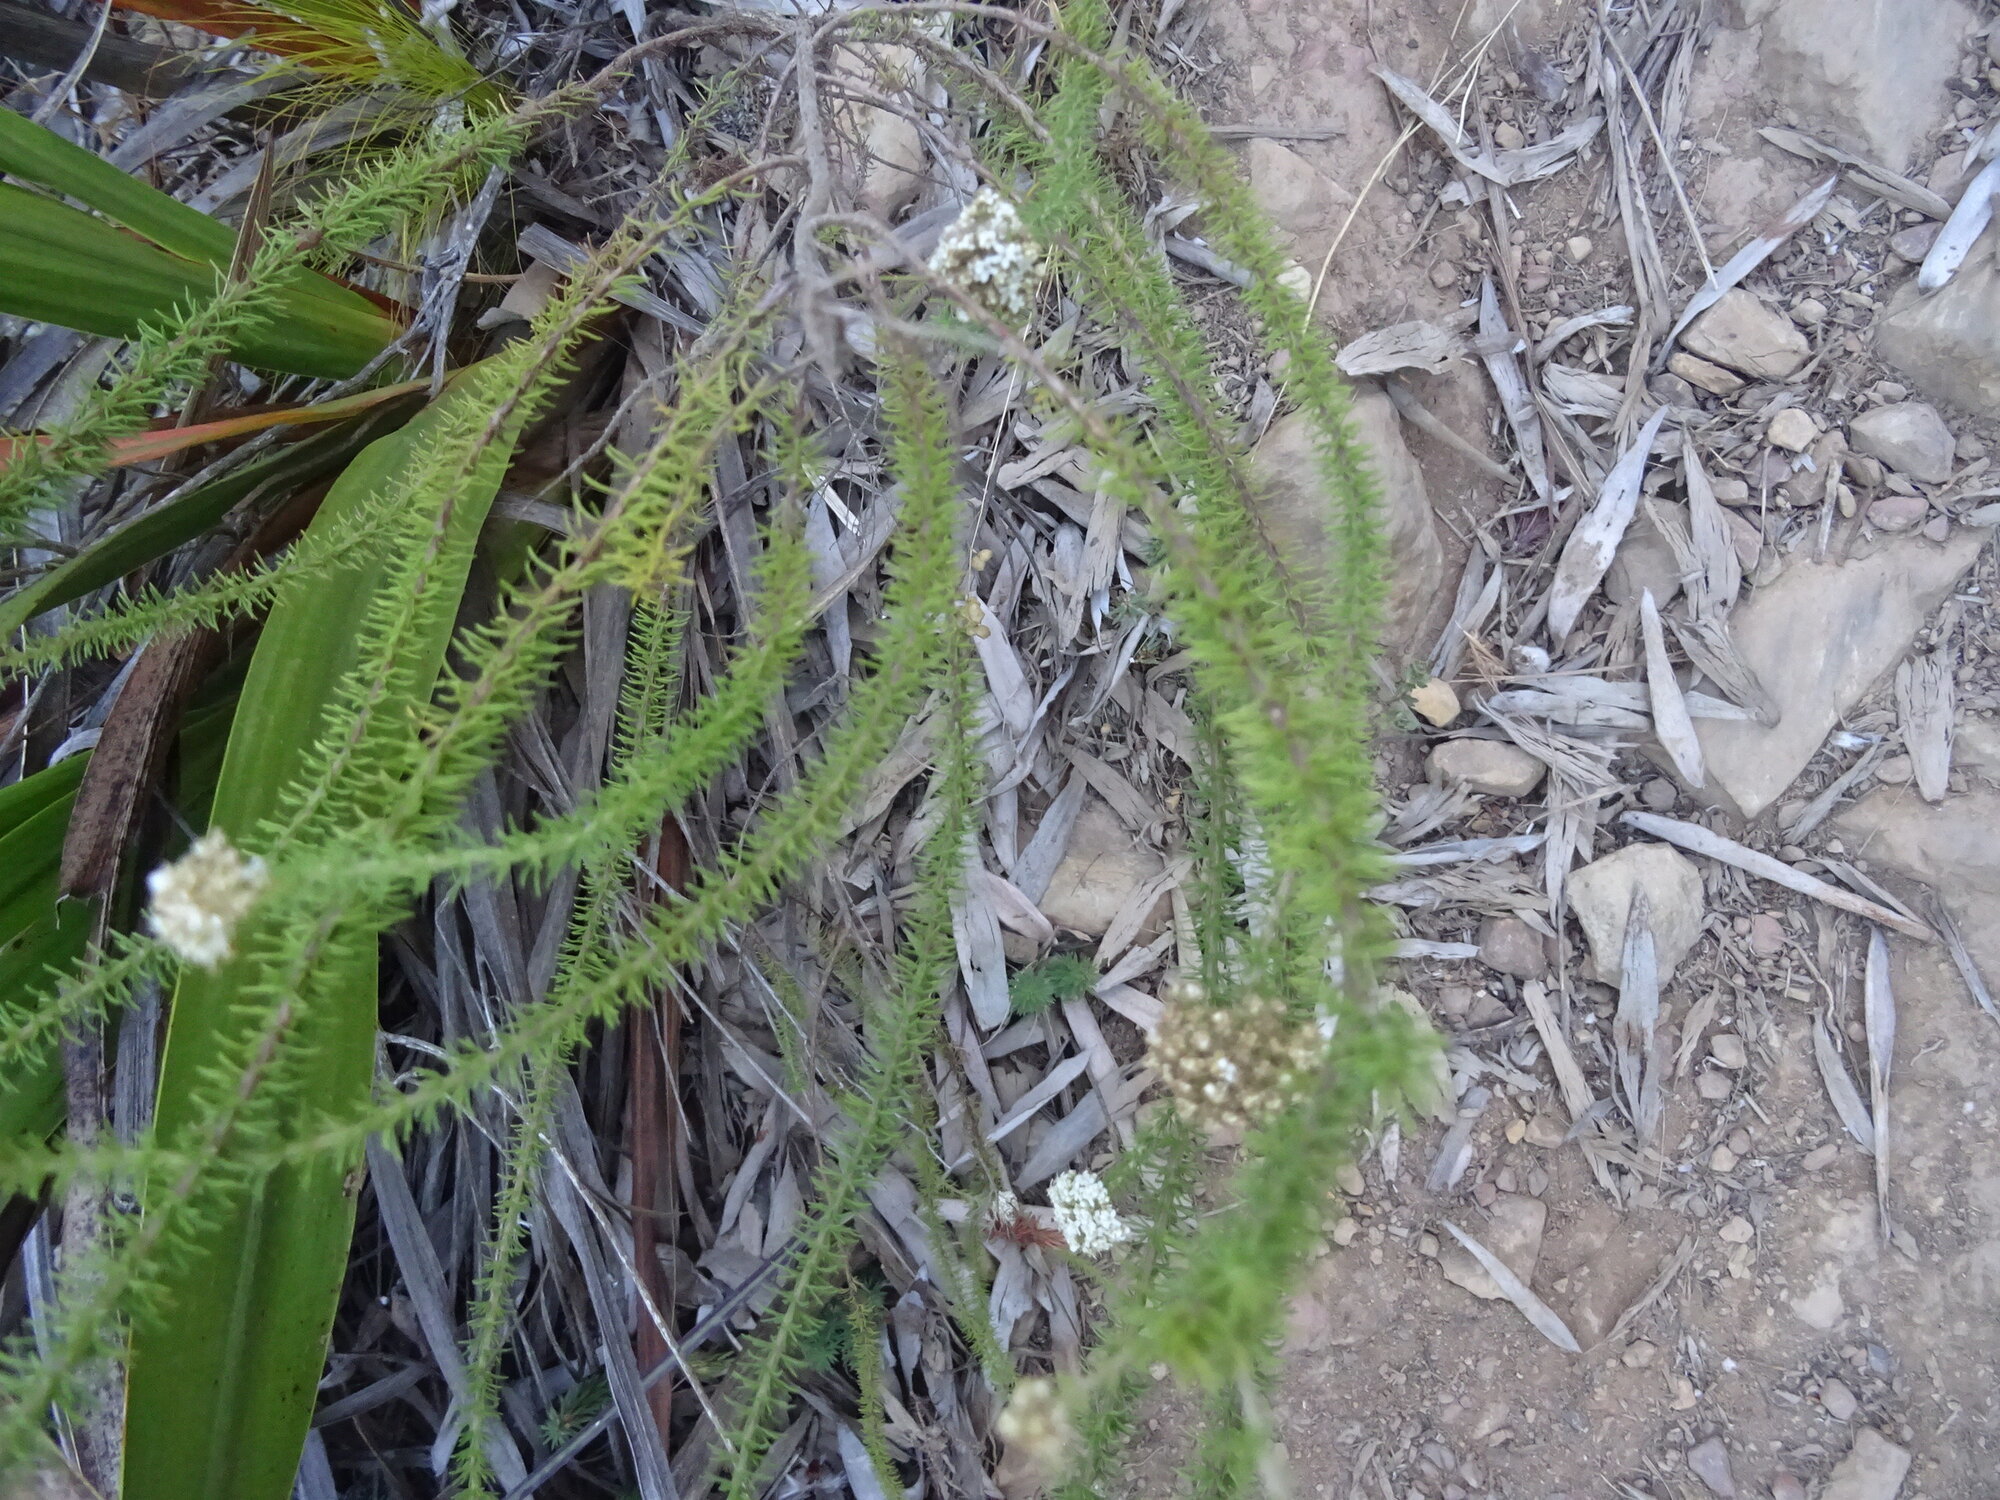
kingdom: Plantae
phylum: Tracheophyta
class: Magnoliopsida
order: Lamiales
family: Scrophulariaceae
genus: Selago
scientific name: Selago corymbosa
